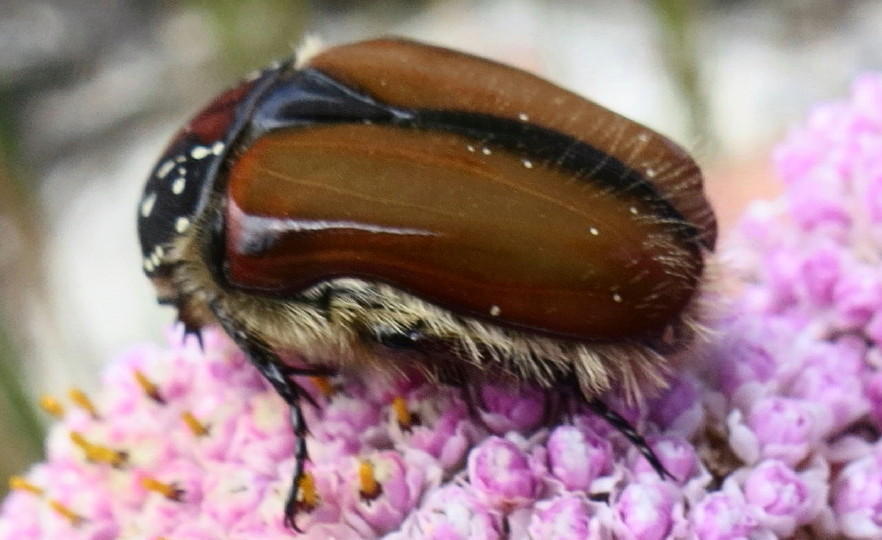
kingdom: Animalia
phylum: Arthropoda
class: Insecta
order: Coleoptera
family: Scarabaeidae
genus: Trichostetha
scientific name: Trichostetha capensis
